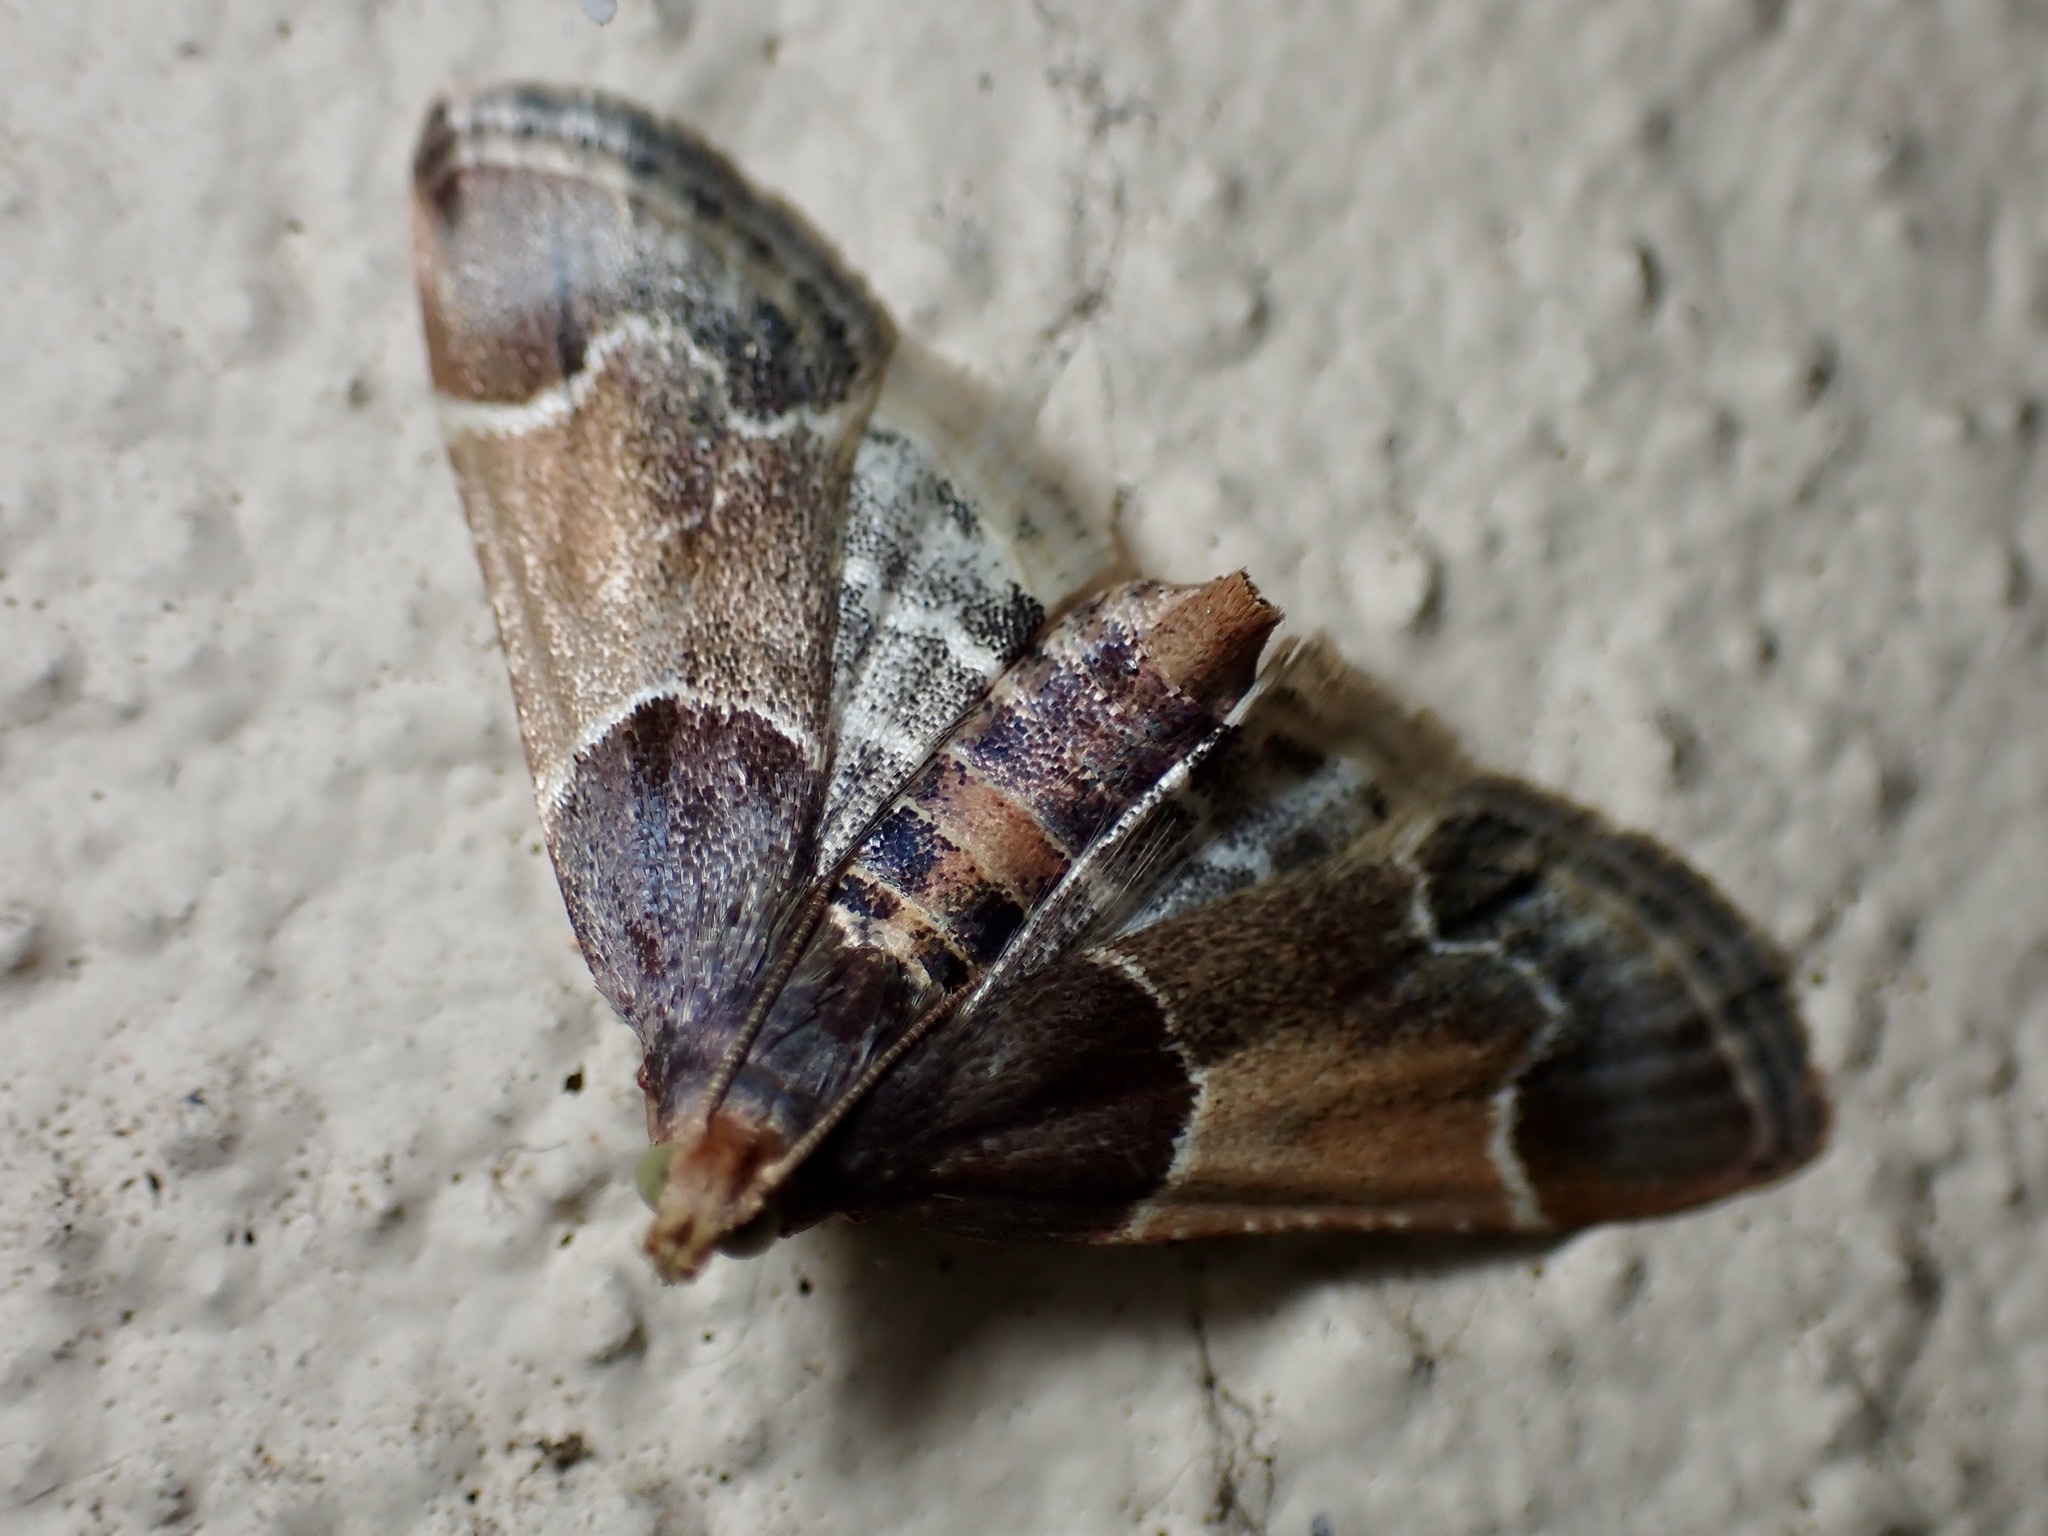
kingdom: Animalia
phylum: Arthropoda
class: Insecta
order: Lepidoptera
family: Pyralidae
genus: Pyralis
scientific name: Pyralis farinalis
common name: Meal moth
